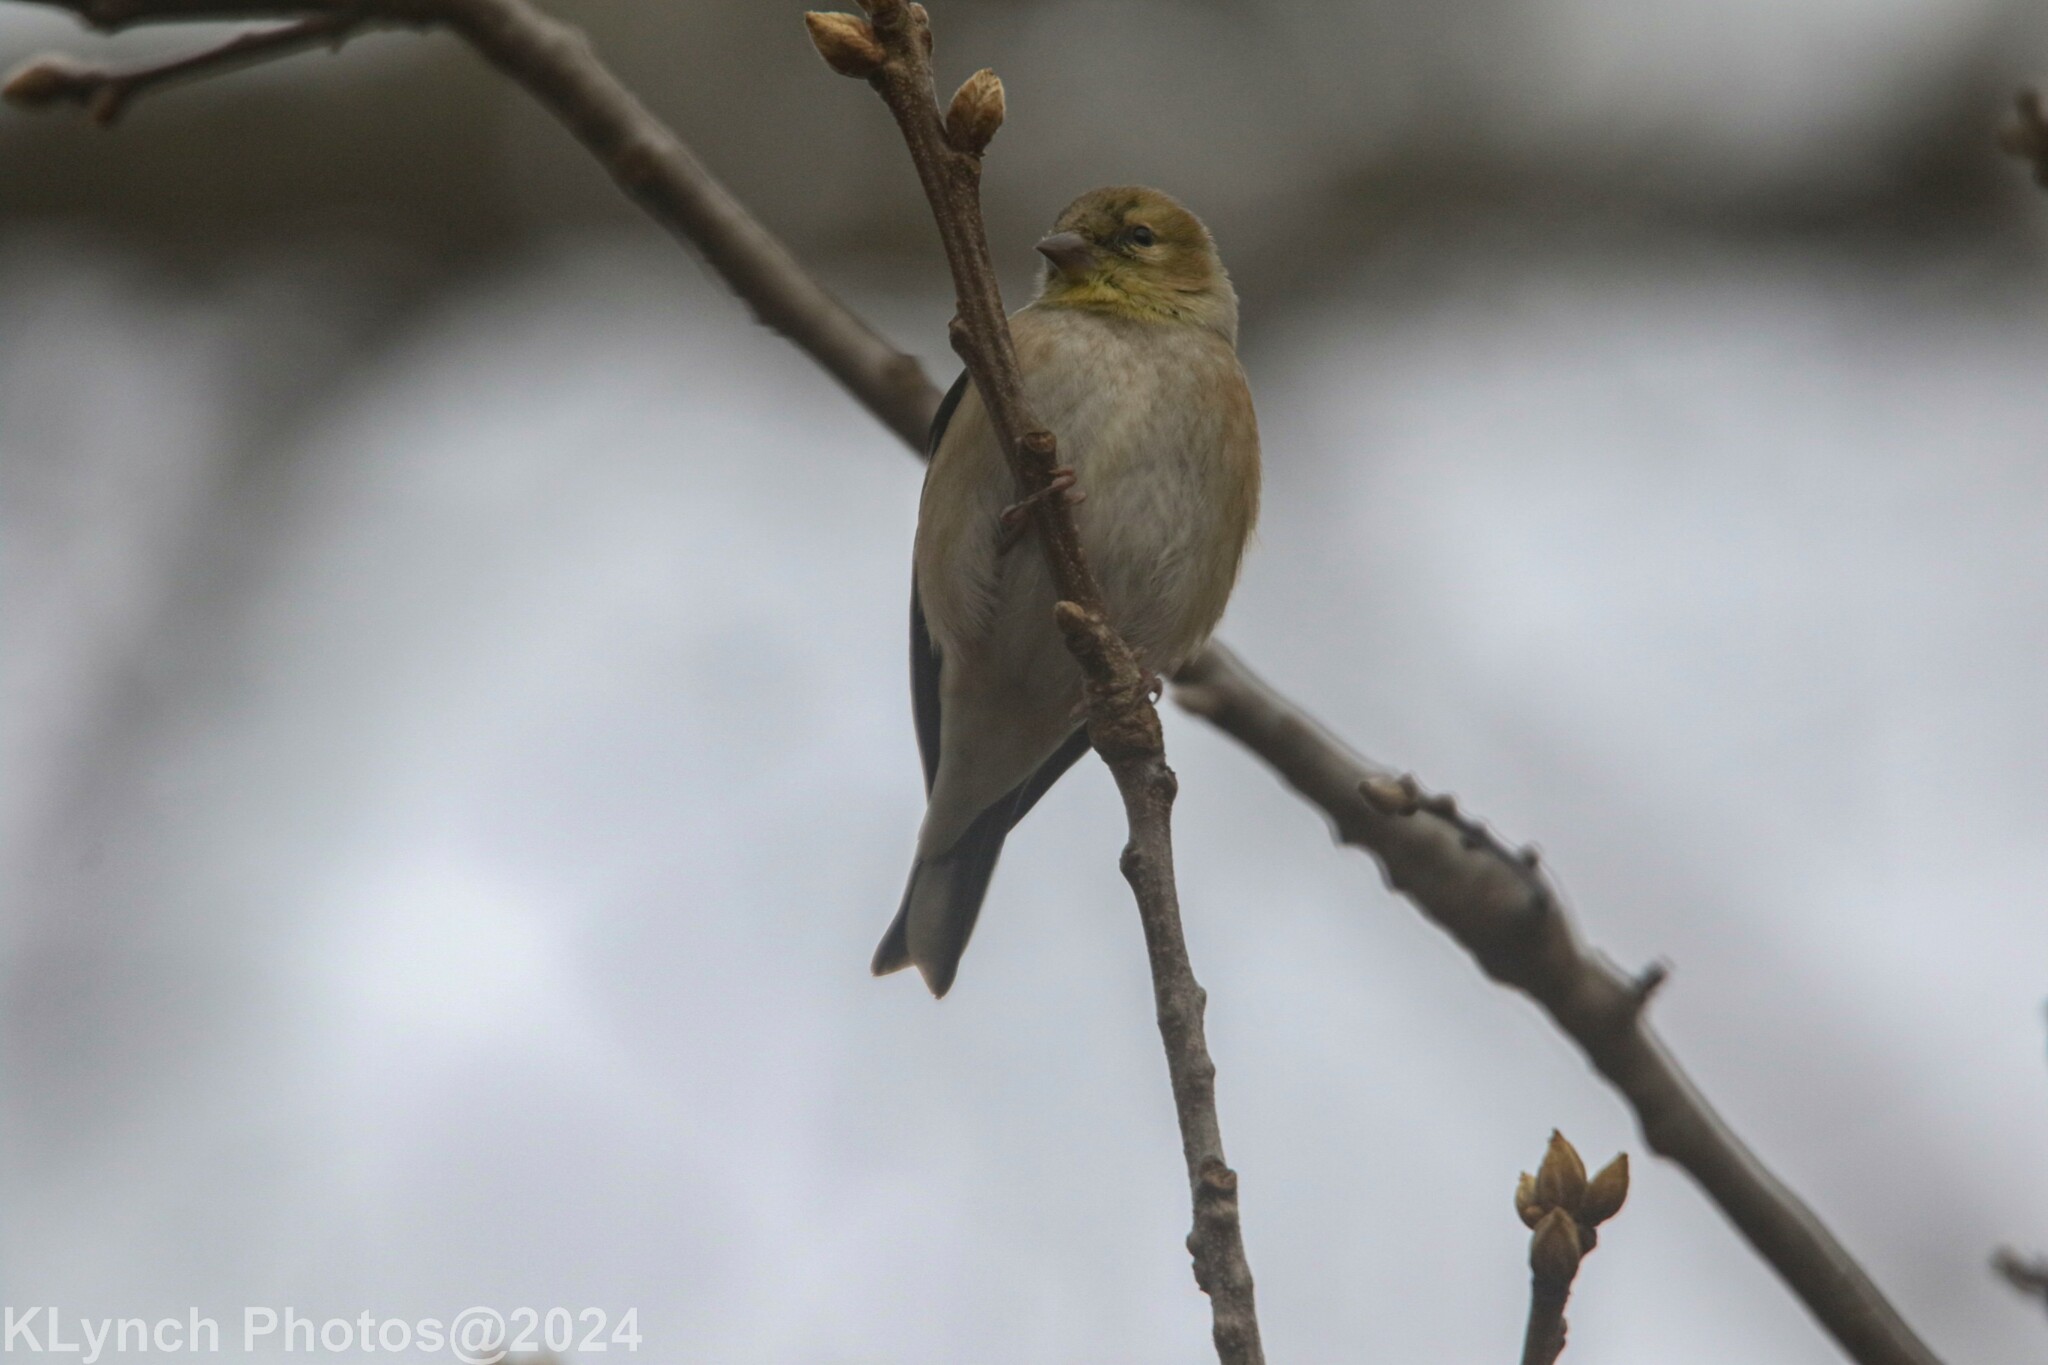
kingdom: Animalia
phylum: Chordata
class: Aves
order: Passeriformes
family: Fringillidae
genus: Spinus
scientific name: Spinus tristis
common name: American goldfinch
